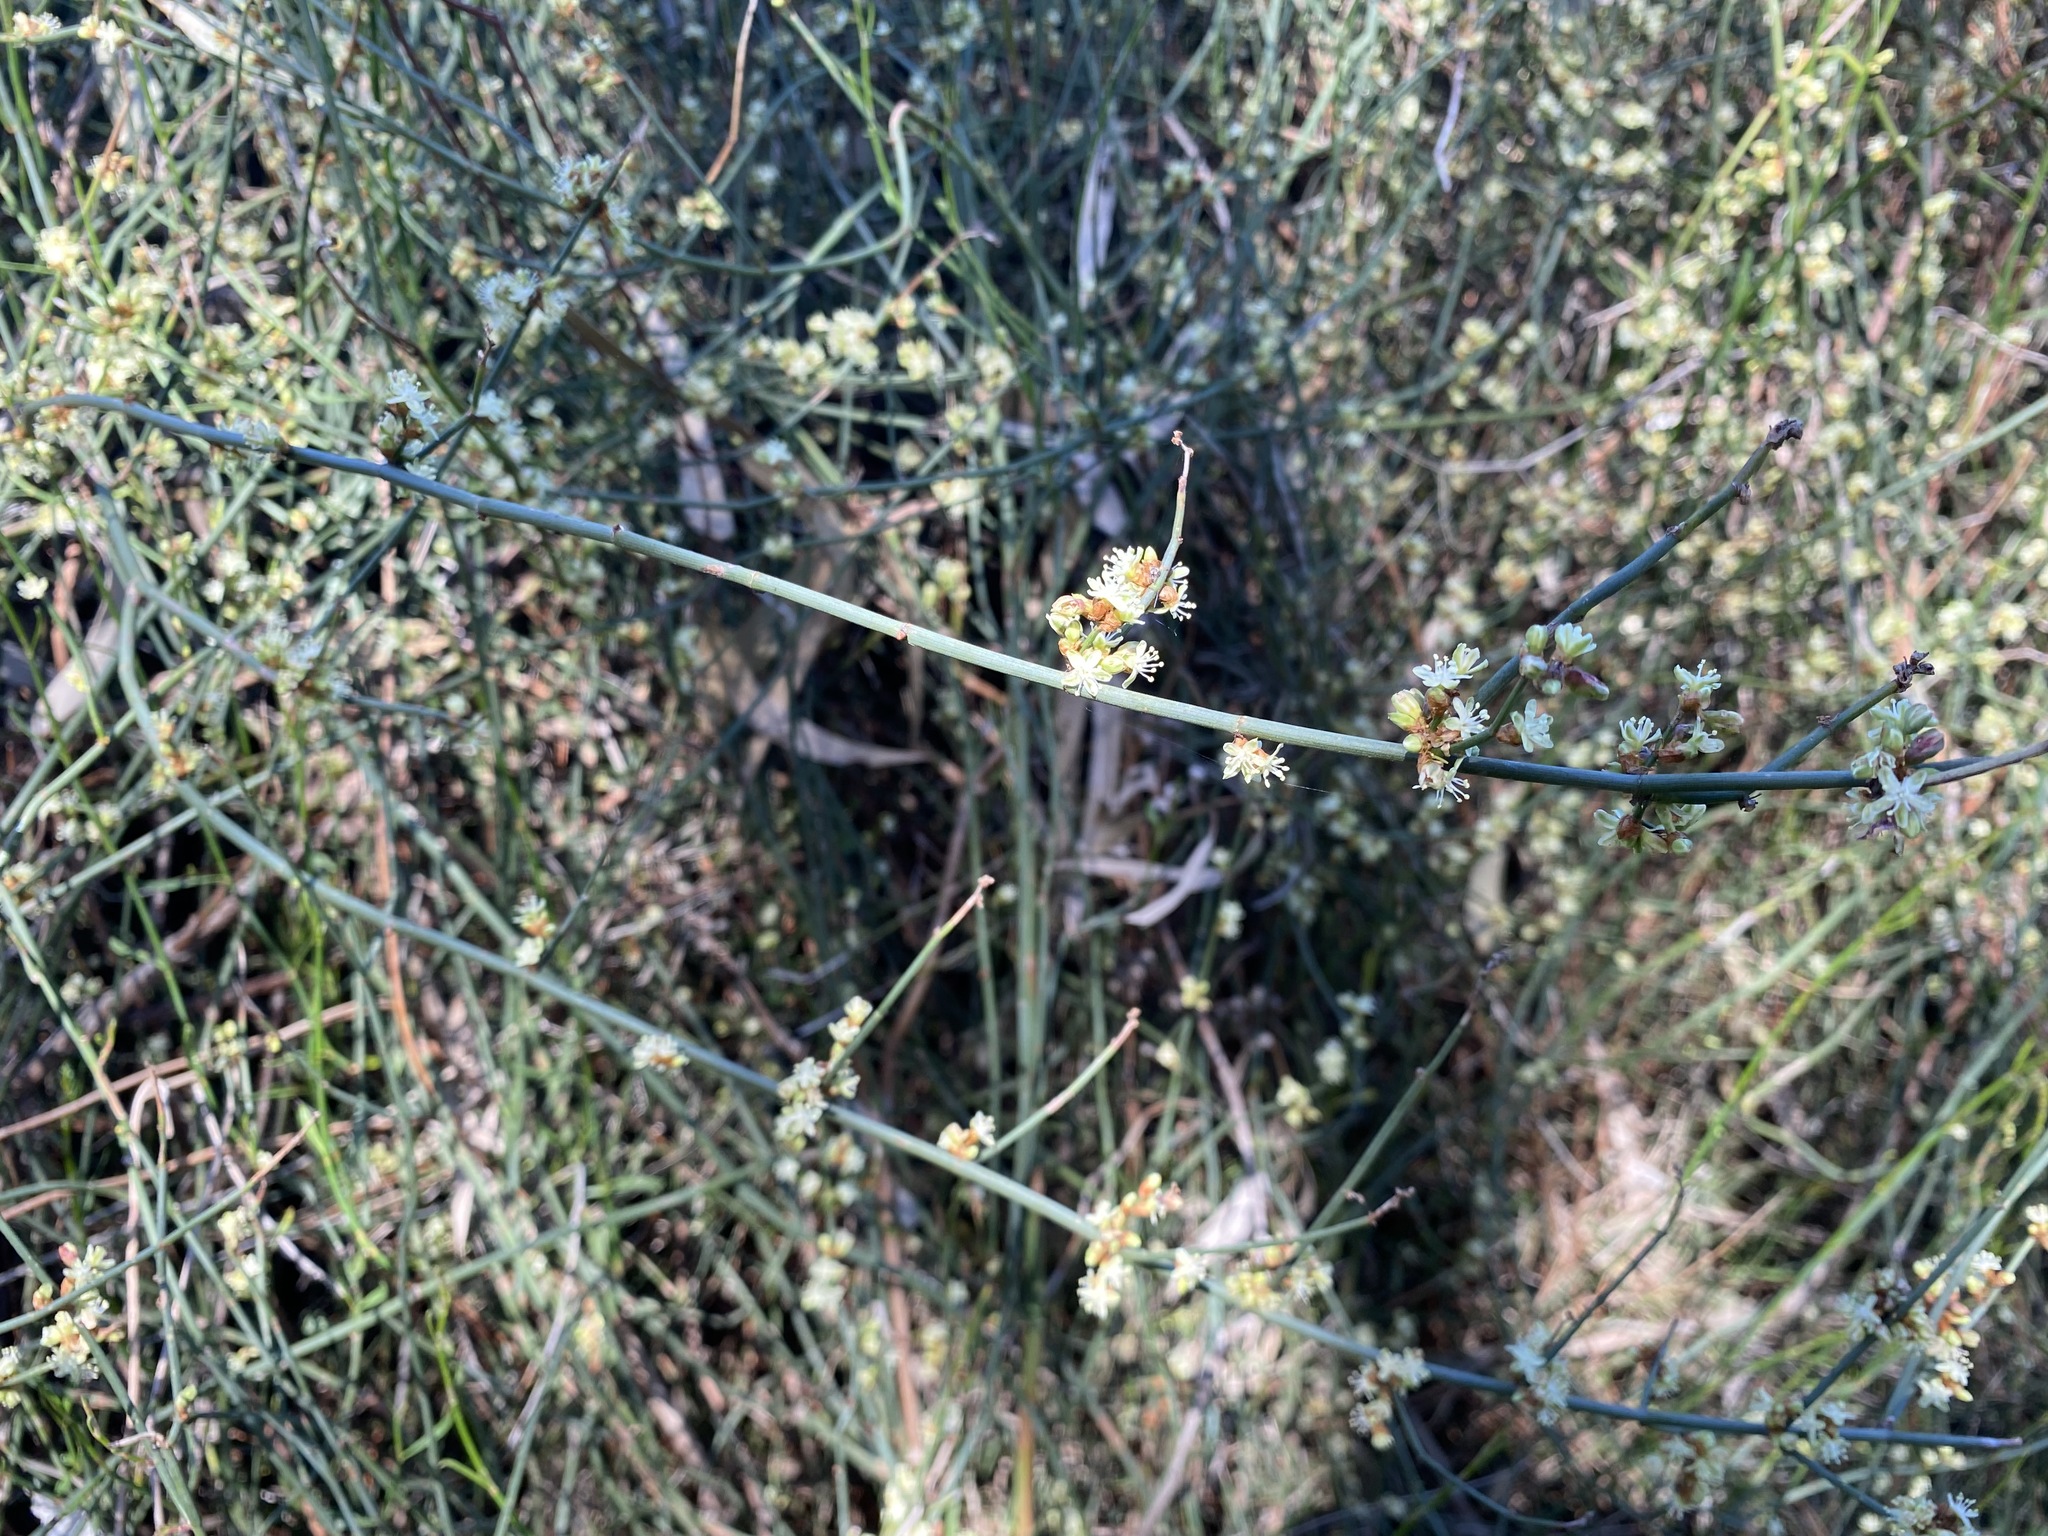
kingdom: Plantae
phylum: Tracheophyta
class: Magnoliopsida
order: Caryophyllales
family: Polygonaceae
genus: Duma
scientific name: Duma florulenta
